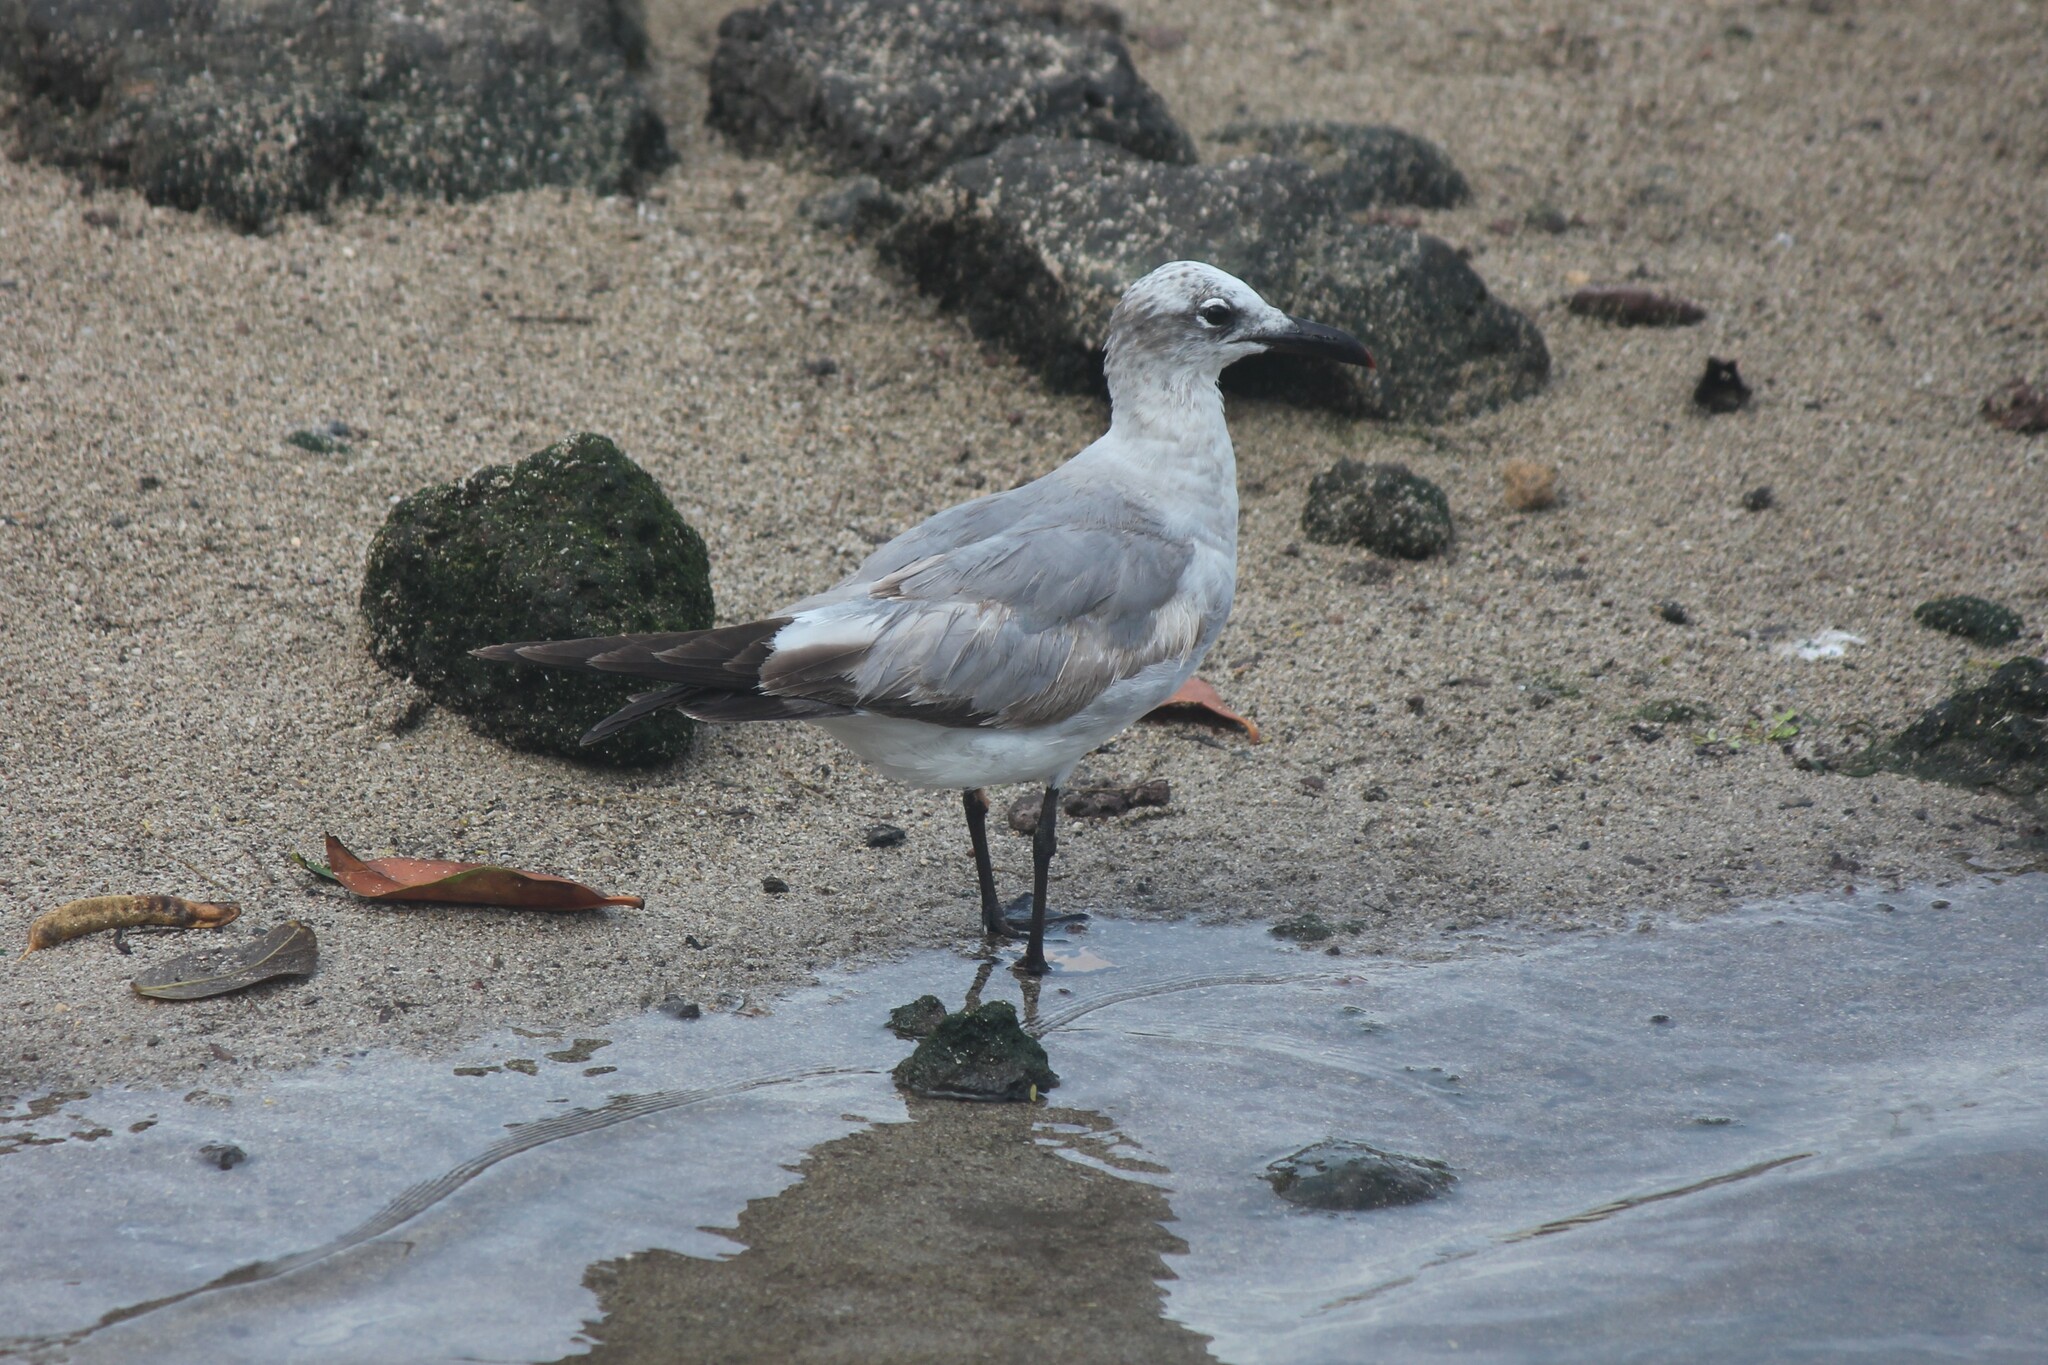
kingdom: Animalia
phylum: Chordata
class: Aves
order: Charadriiformes
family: Laridae
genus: Leucophaeus
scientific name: Leucophaeus atricilla
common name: Laughing gull
